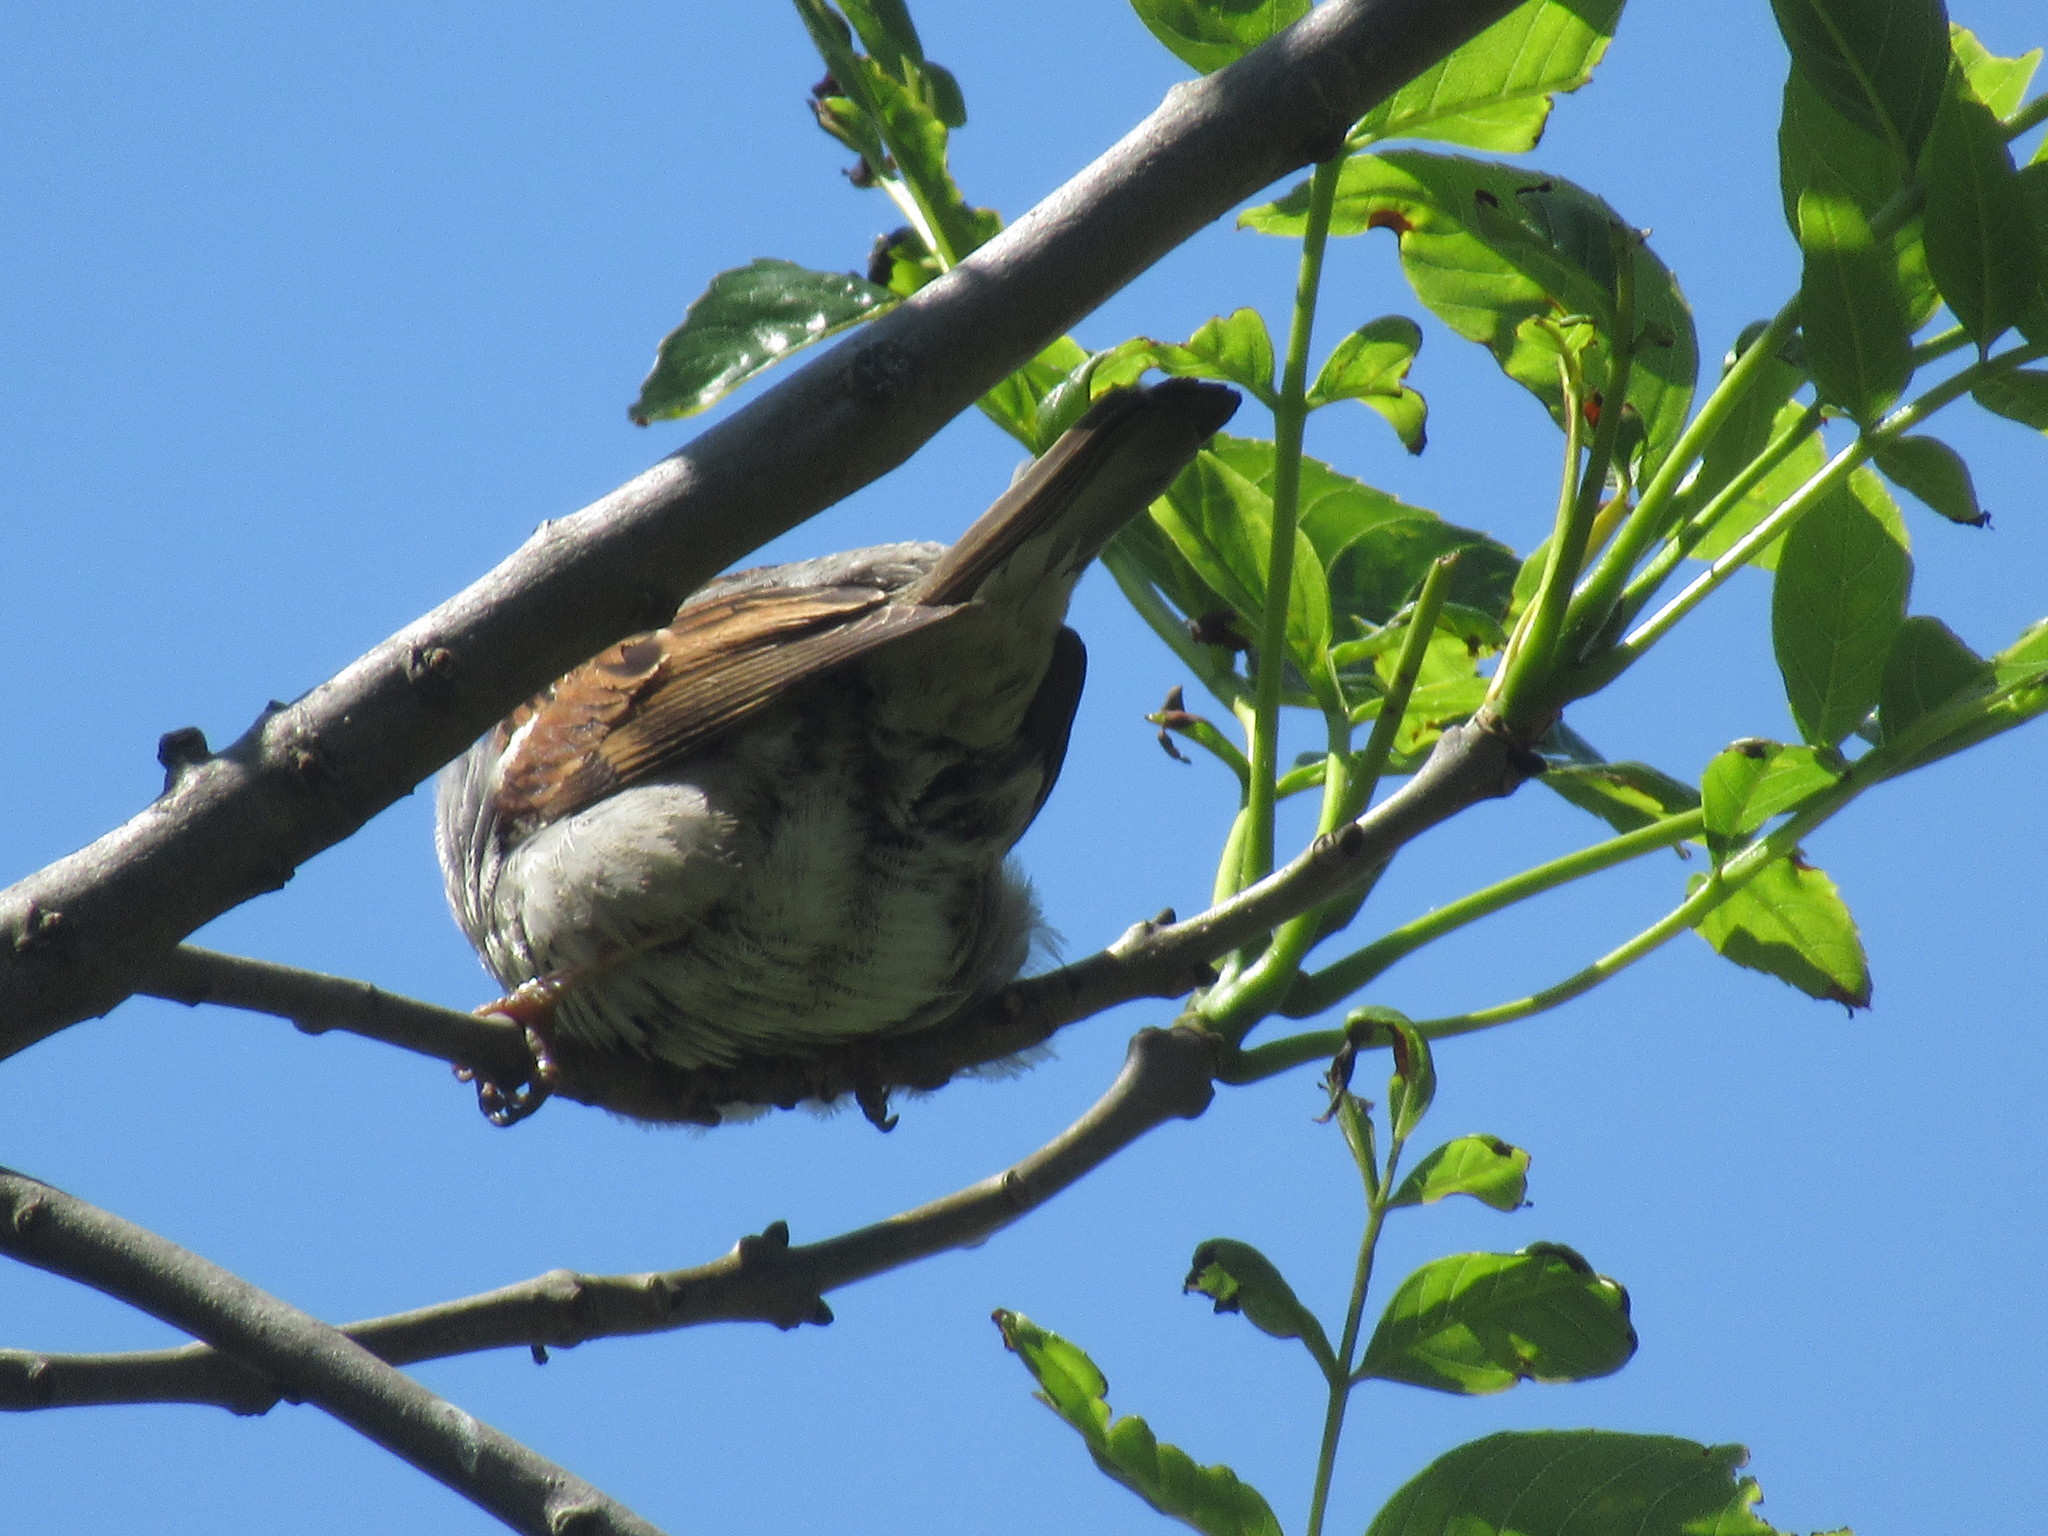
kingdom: Animalia
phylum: Chordata
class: Aves
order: Passeriformes
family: Passeridae
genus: Passer
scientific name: Passer domesticus
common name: House sparrow
